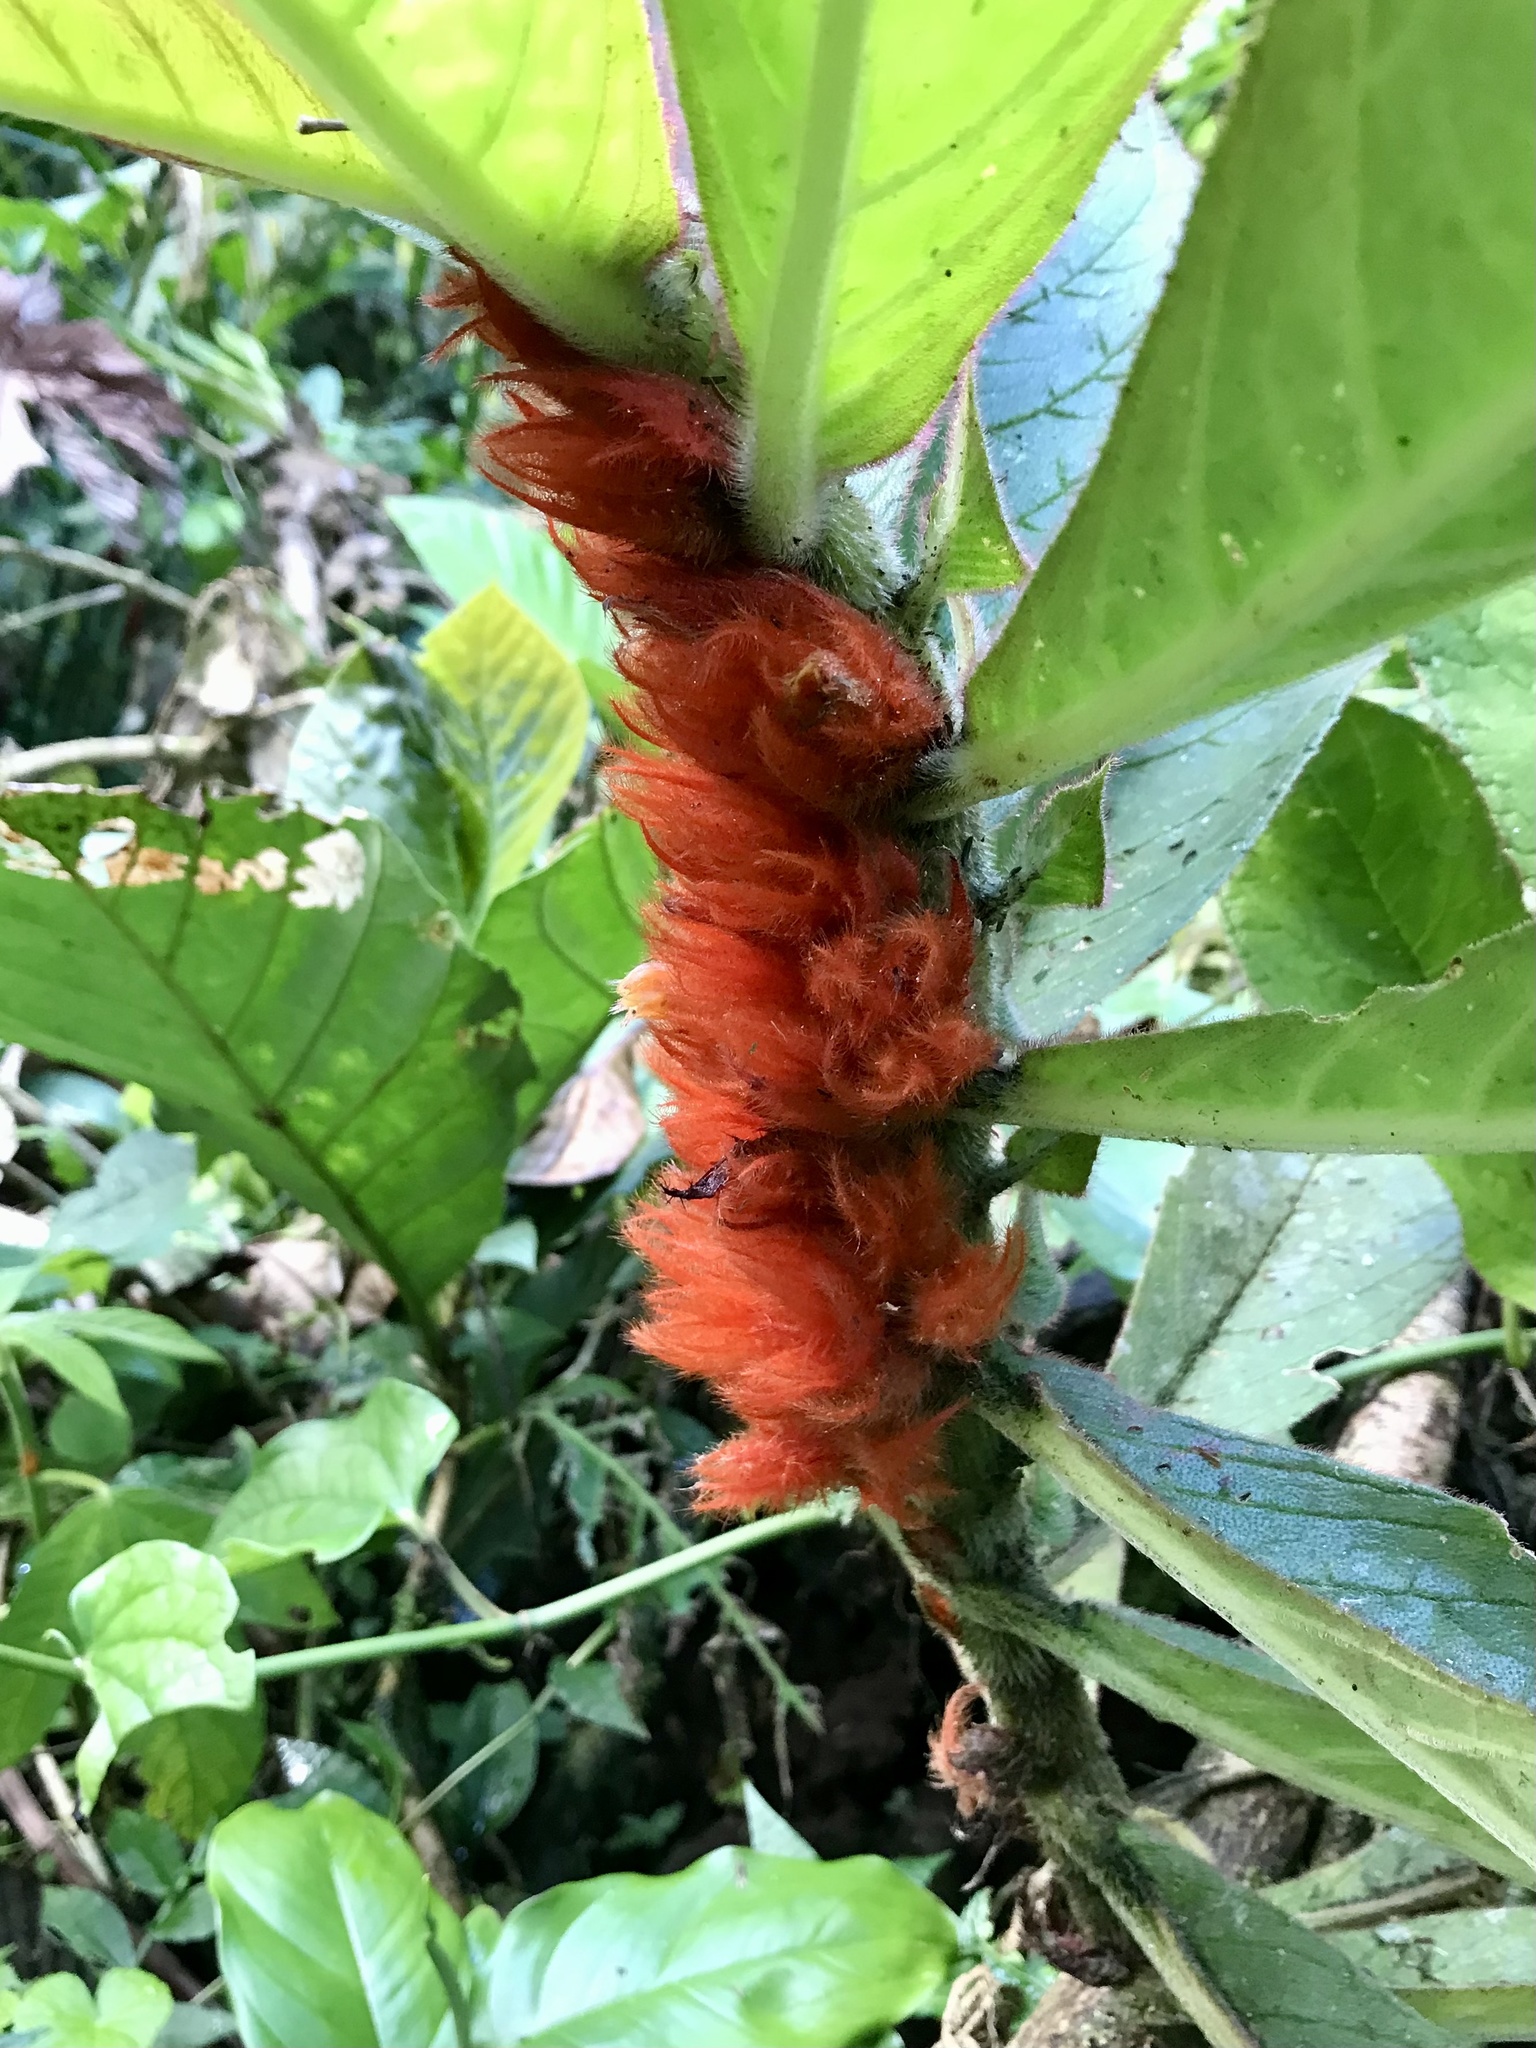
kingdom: Plantae
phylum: Tracheophyta
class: Magnoliopsida
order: Lamiales
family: Gesneriaceae
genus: Columnea
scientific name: Columnea purpurata
